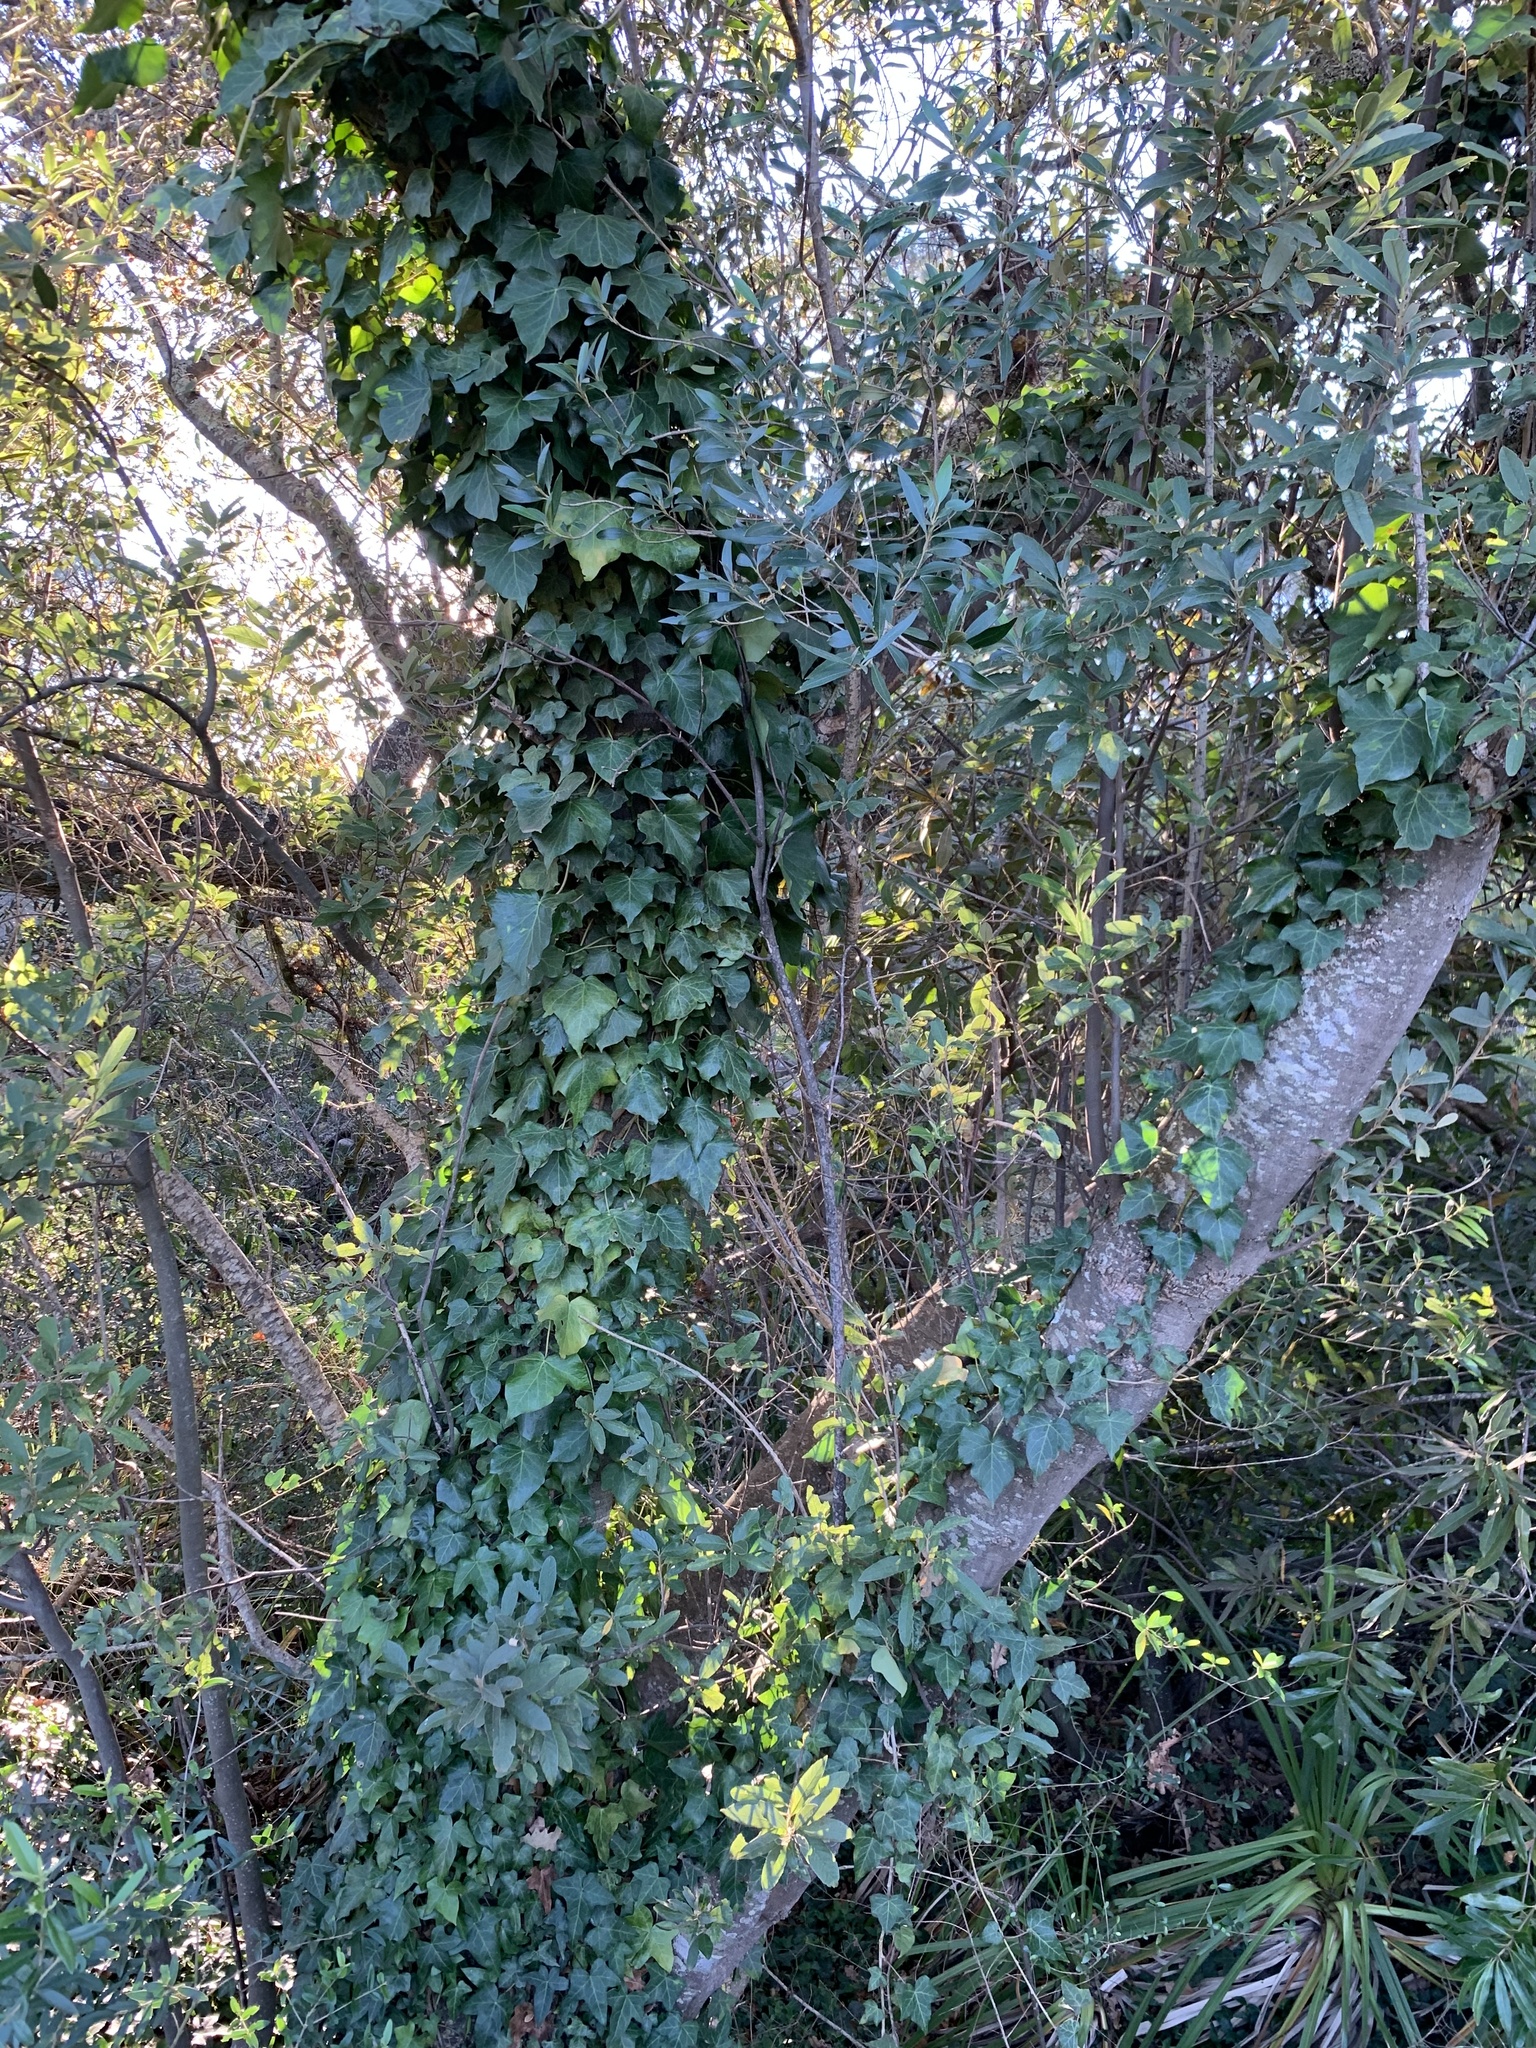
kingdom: Plantae
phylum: Tracheophyta
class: Magnoliopsida
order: Apiales
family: Araliaceae
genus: Hedera
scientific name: Hedera canariensis
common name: Madeira ivy
